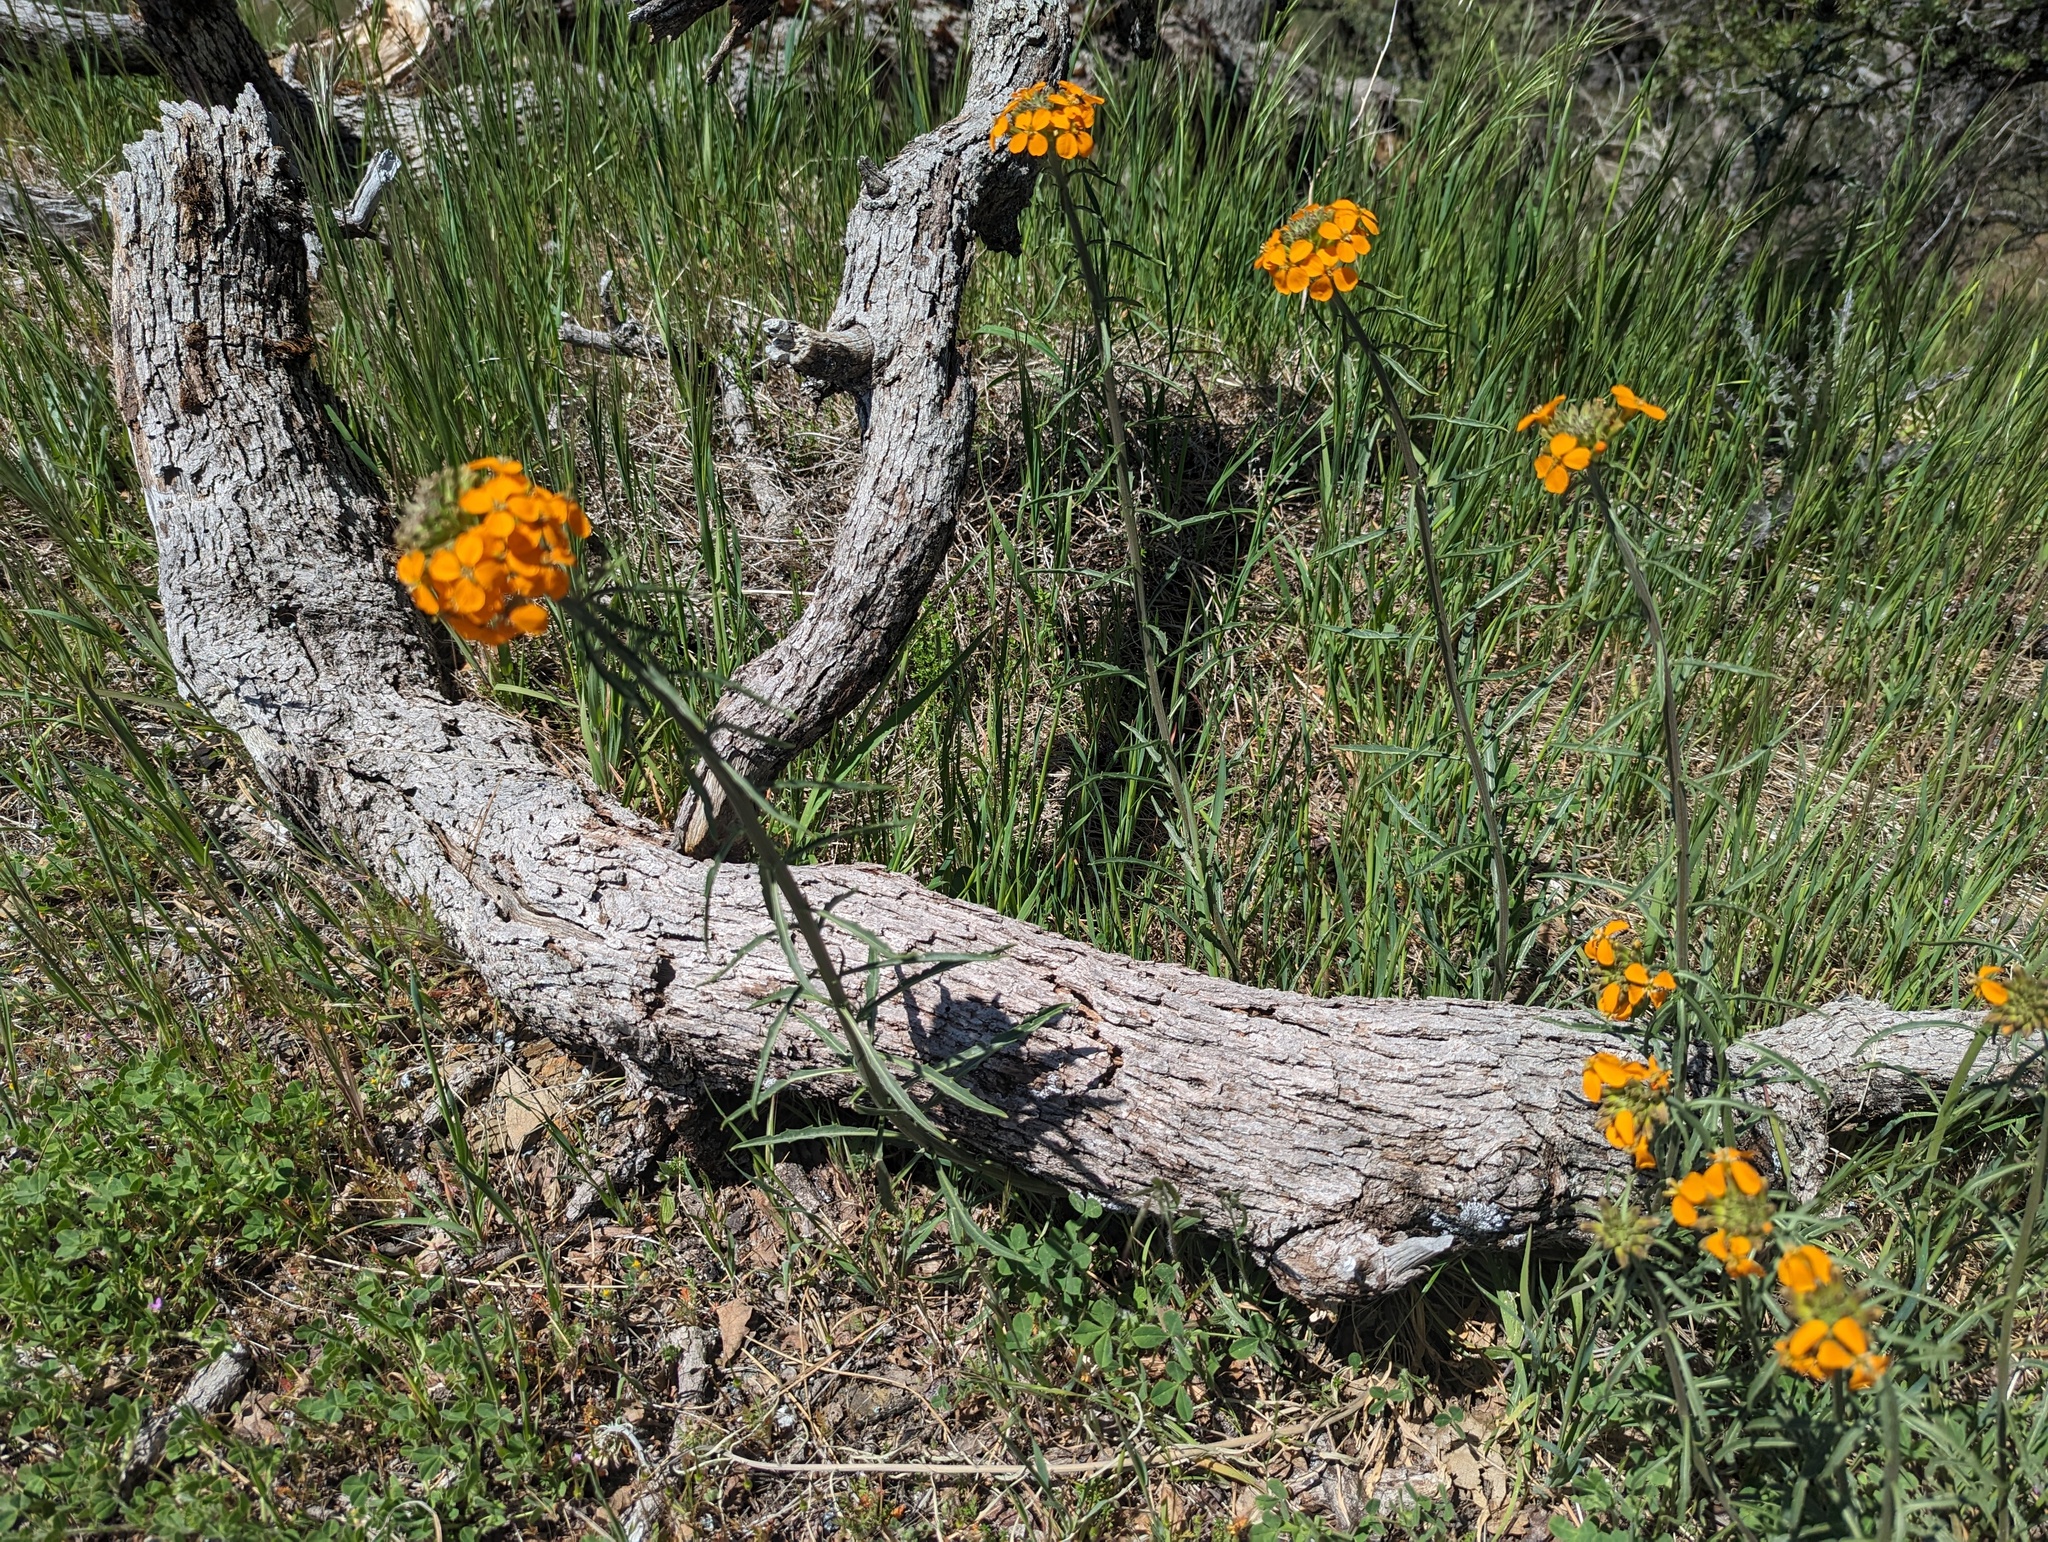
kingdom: Plantae
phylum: Tracheophyta
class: Magnoliopsida
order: Brassicales
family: Brassicaceae
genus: Erysimum
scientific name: Erysimum capitatum
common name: Western wallflower
